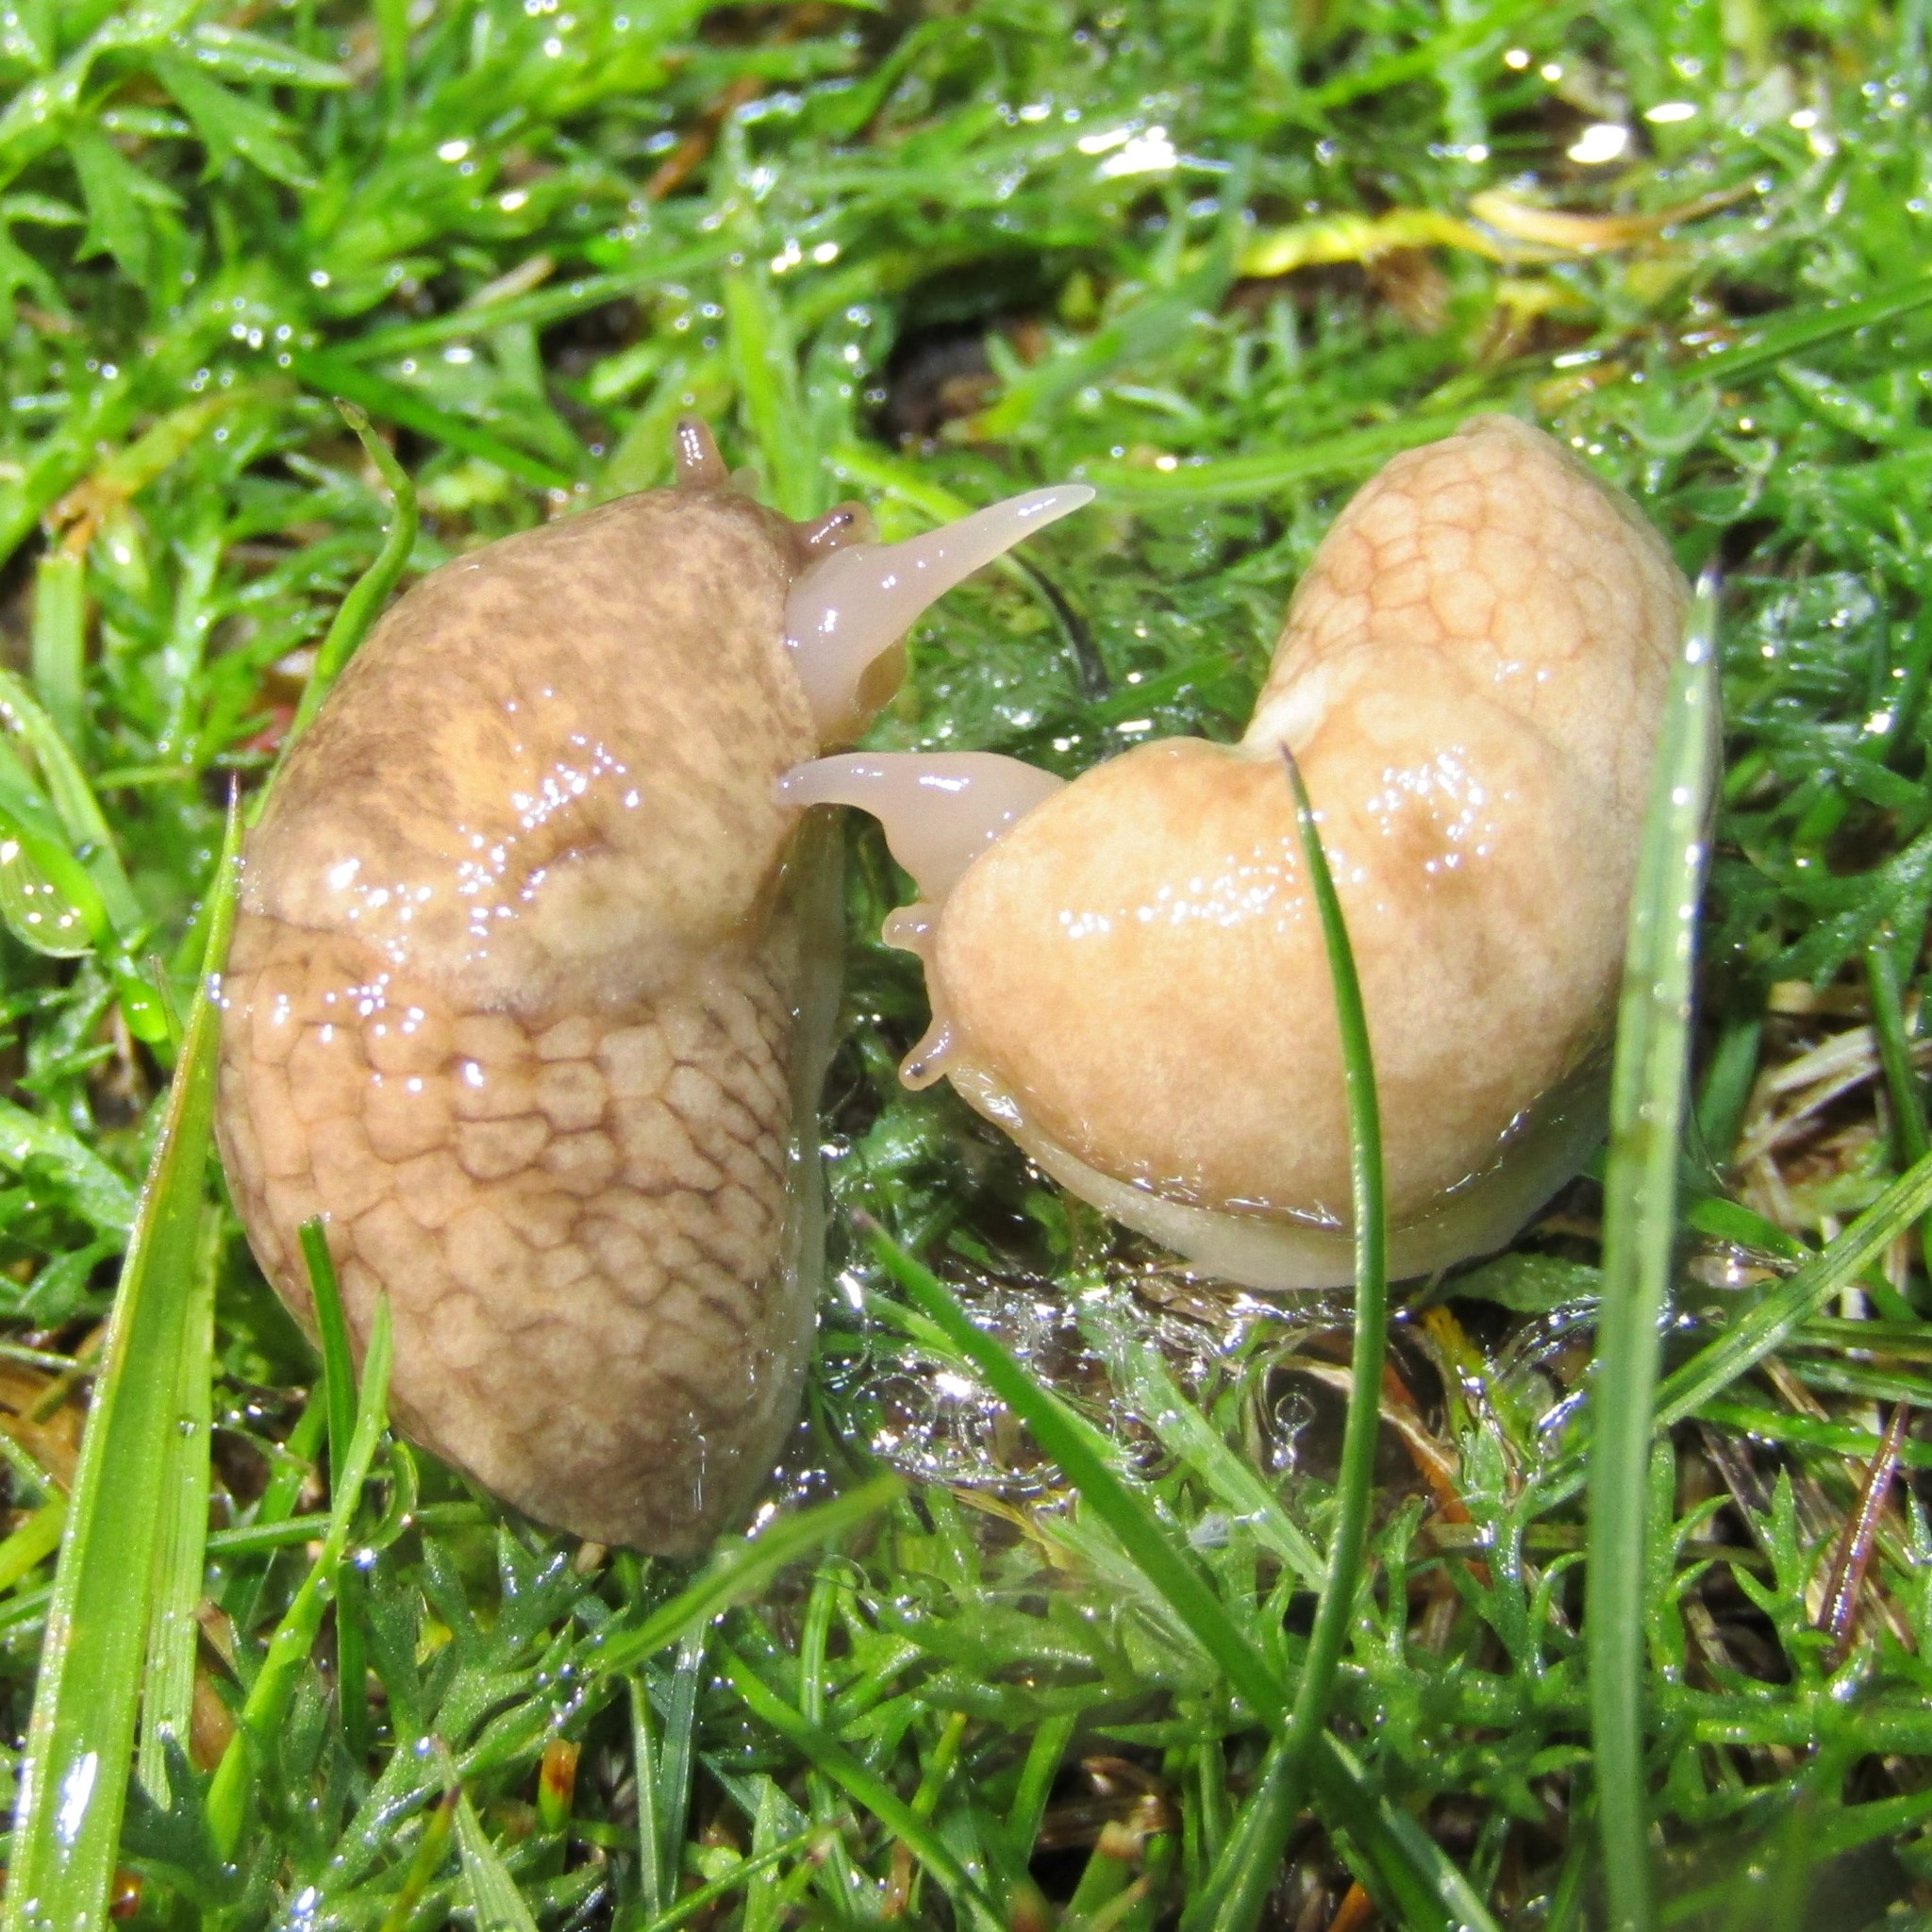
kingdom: Animalia
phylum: Mollusca
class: Gastropoda
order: Stylommatophora
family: Agriolimacidae
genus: Deroceras
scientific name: Deroceras reticulatum
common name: Gray field slug
